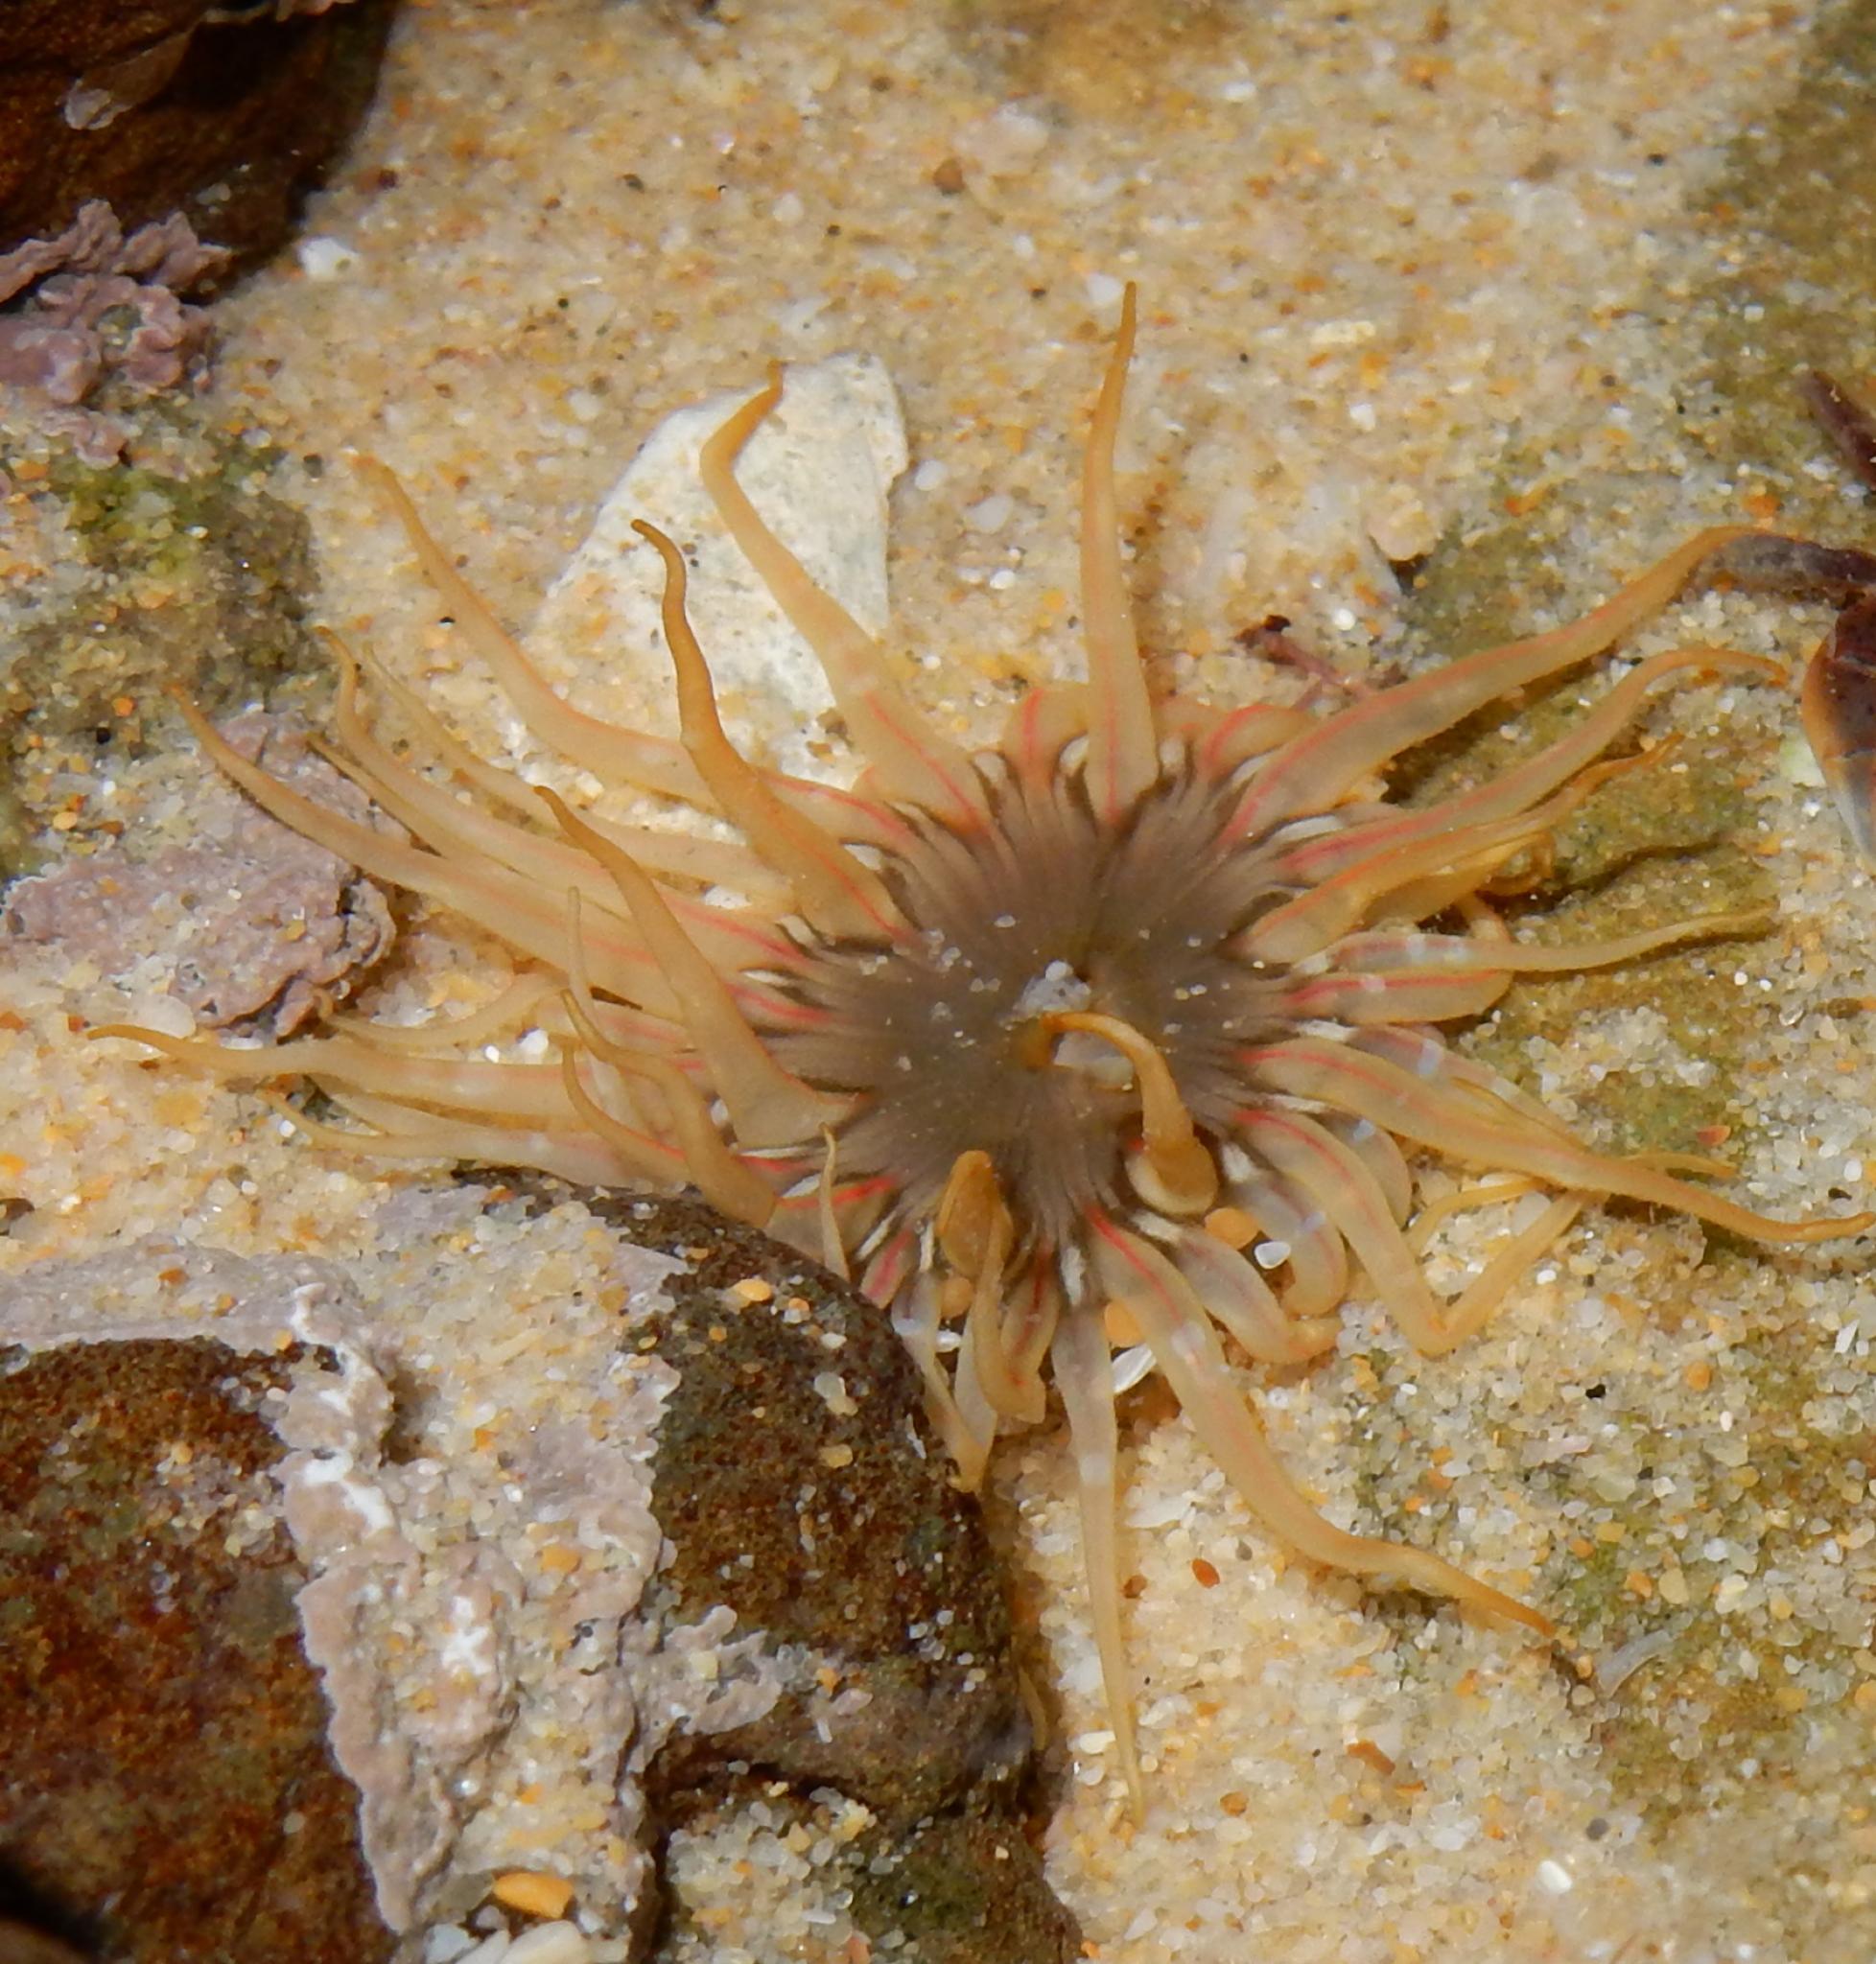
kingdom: Animalia
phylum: Cnidaria
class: Anthozoa
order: Actiniaria
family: Actiniidae
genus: Anthopleura
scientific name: Anthopleura michaelseni
